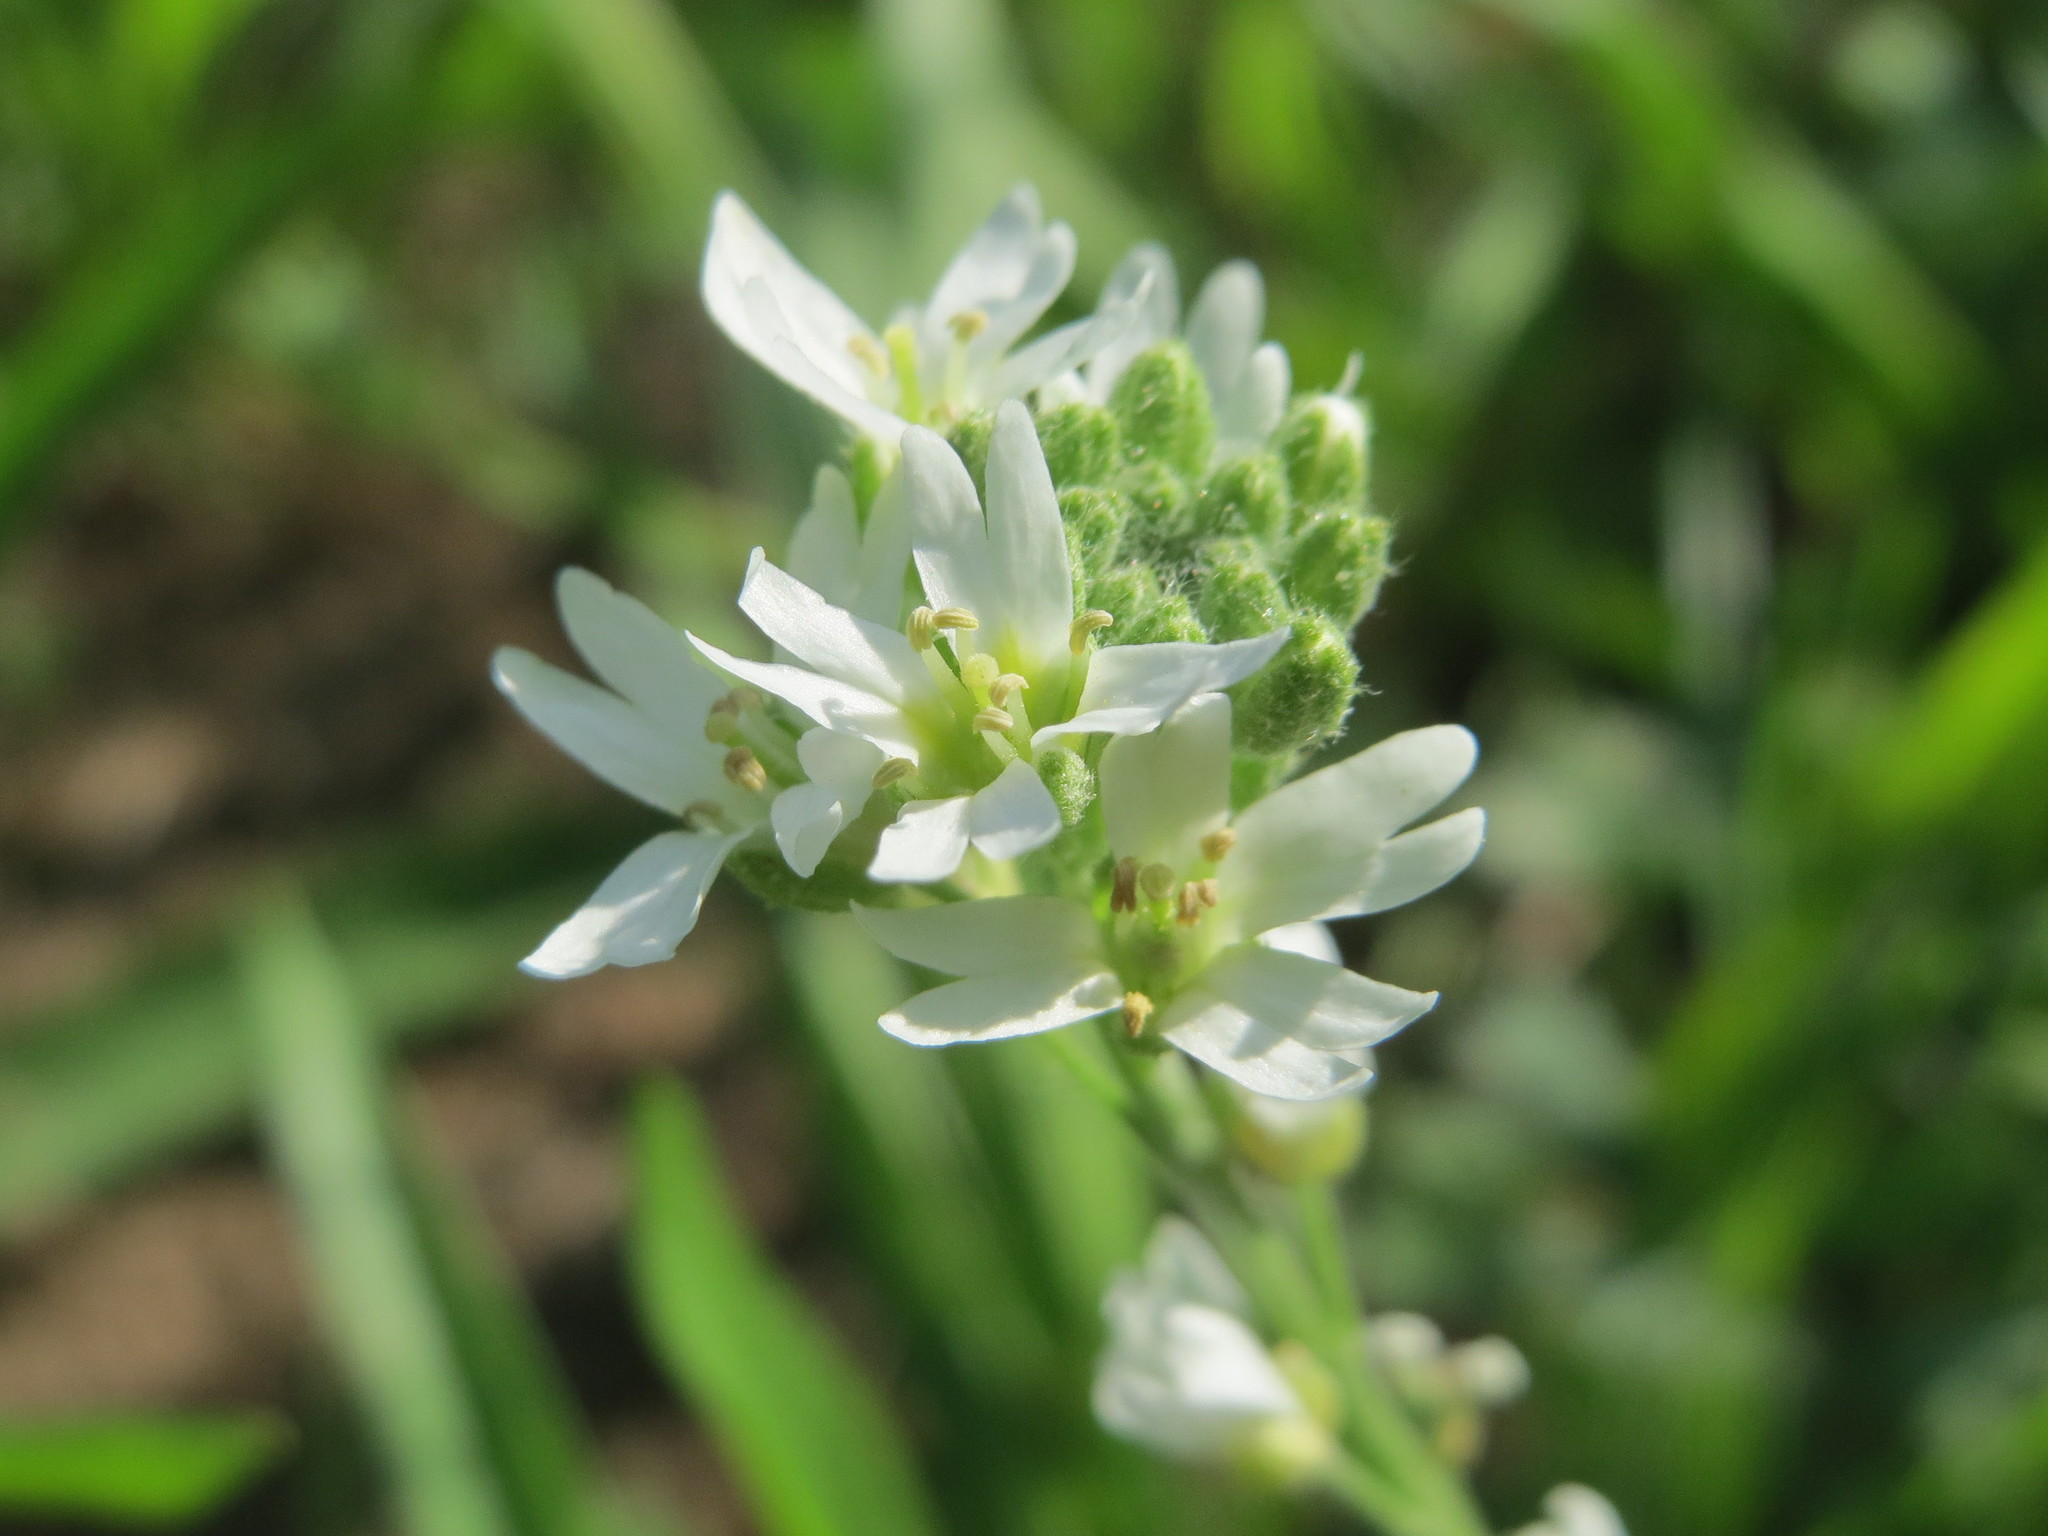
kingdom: Plantae
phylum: Tracheophyta
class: Magnoliopsida
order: Brassicales
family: Brassicaceae
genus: Berteroa
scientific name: Berteroa incana
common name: Hoary alison
